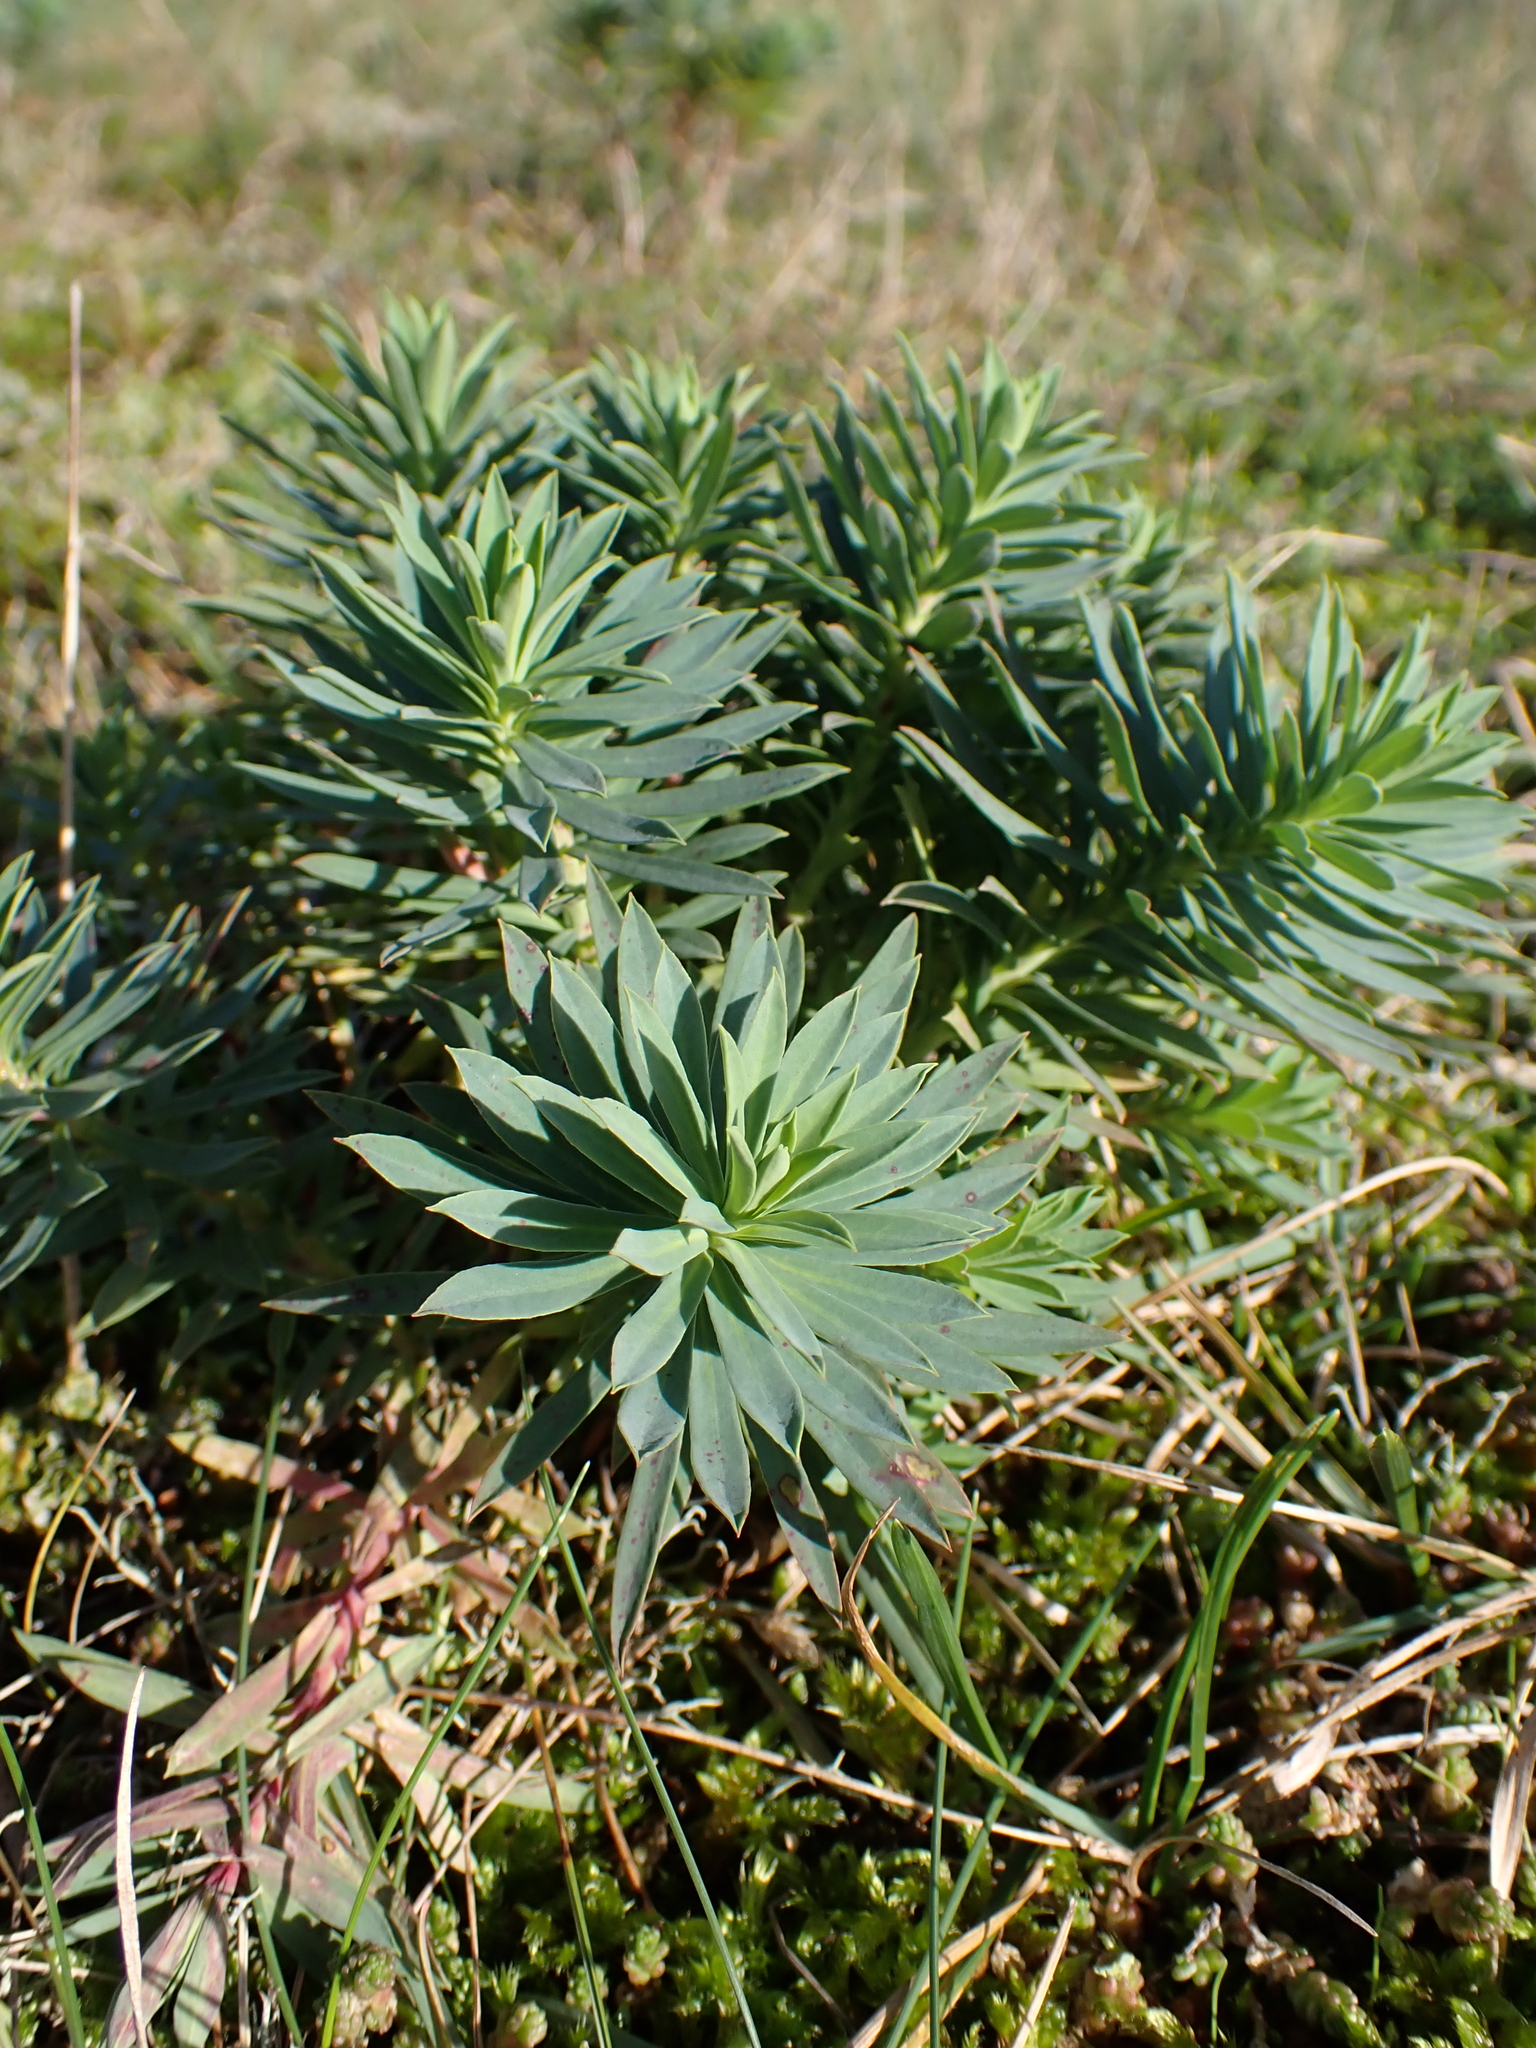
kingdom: Plantae
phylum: Tracheophyta
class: Magnoliopsida
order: Malpighiales
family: Euphorbiaceae
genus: Euphorbia
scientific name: Euphorbia portlandica
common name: Portland spurge
